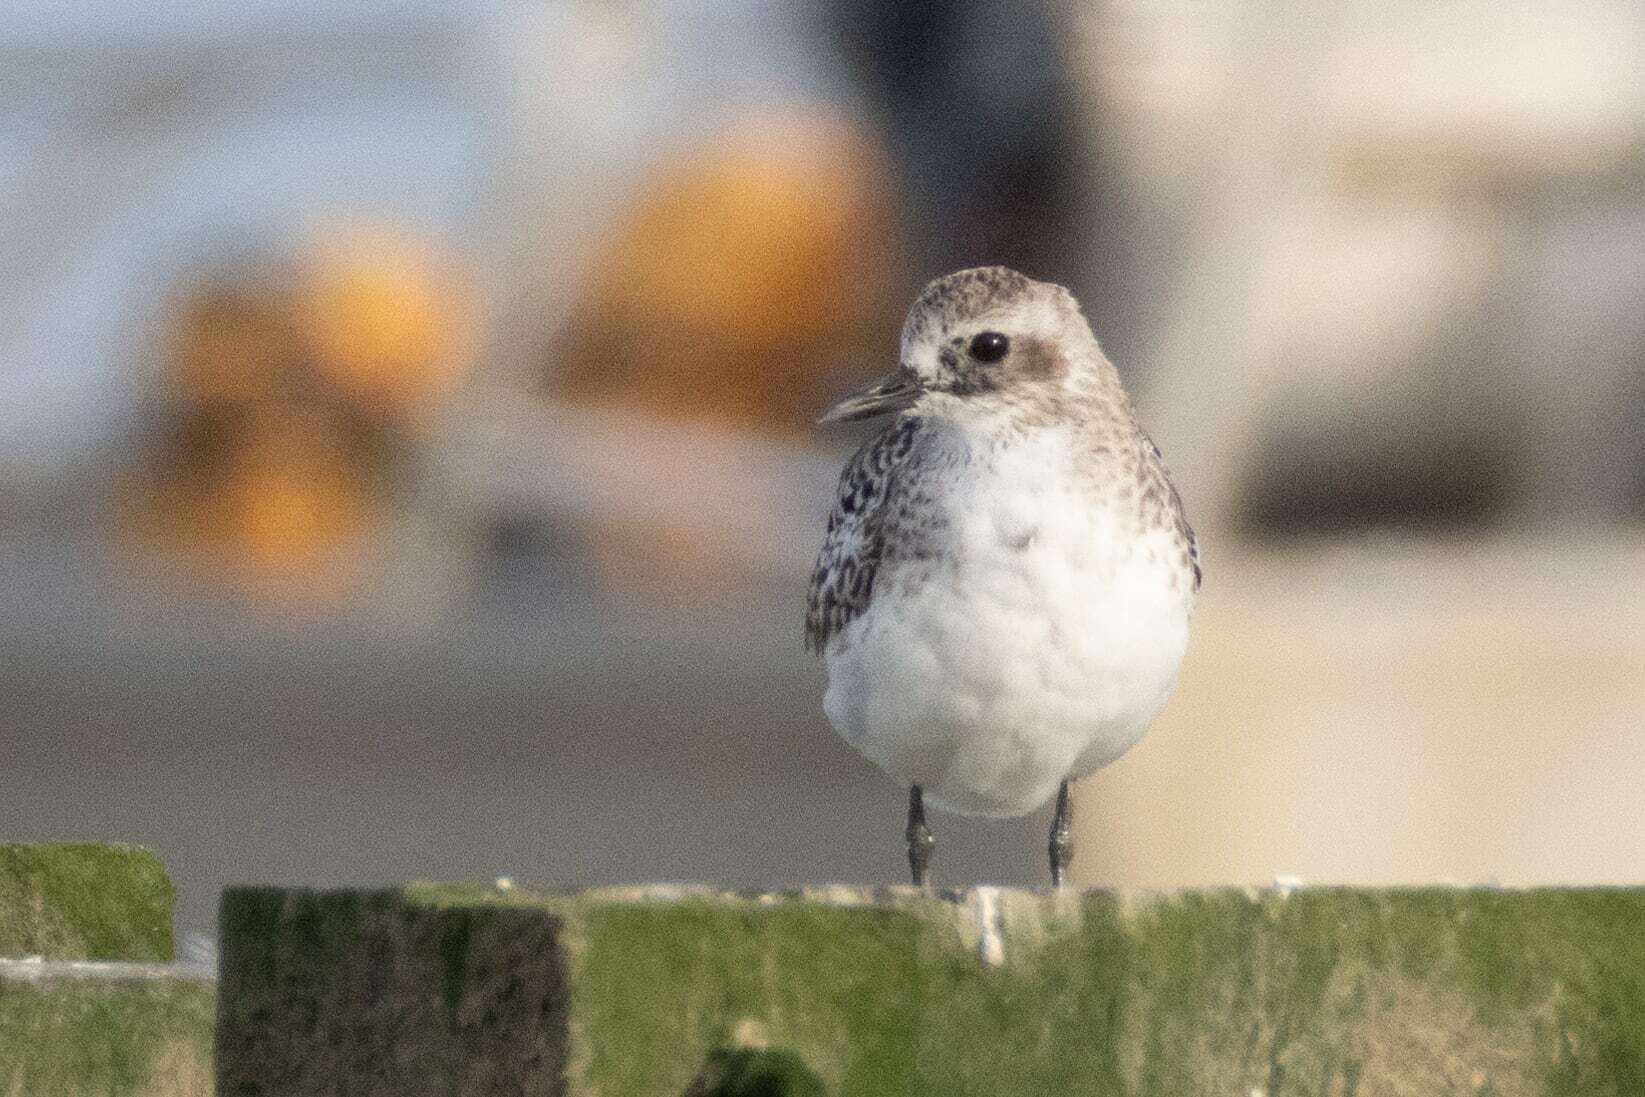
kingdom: Animalia
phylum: Chordata
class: Aves
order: Charadriiformes
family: Charadriidae
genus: Pluvialis
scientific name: Pluvialis squatarola
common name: Grey plover
